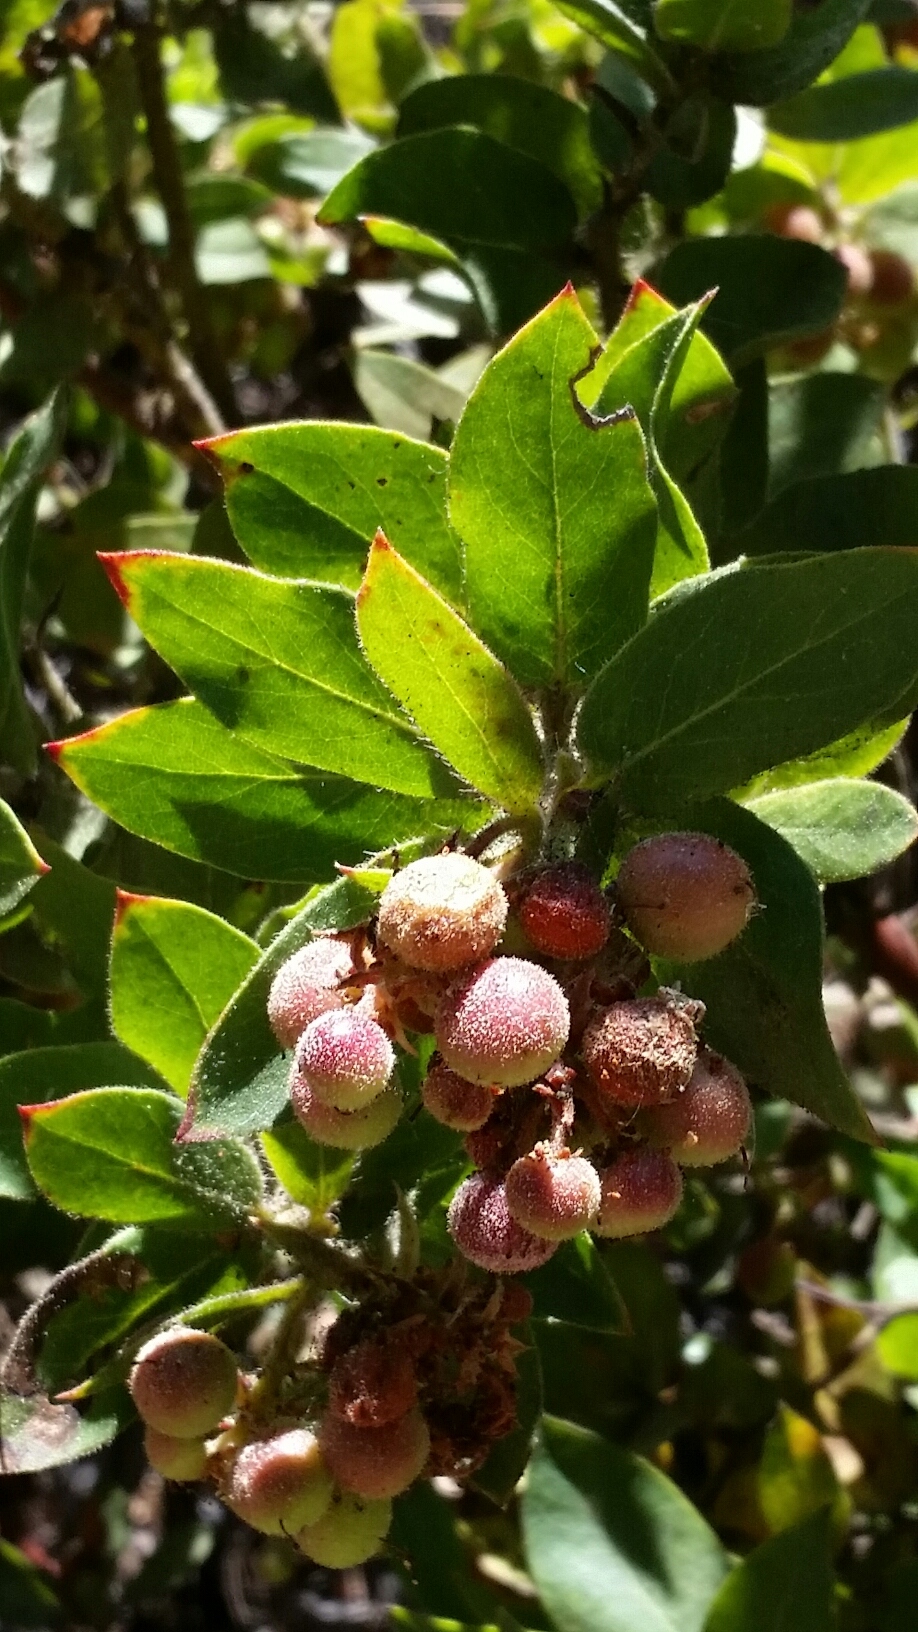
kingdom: Plantae
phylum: Tracheophyta
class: Magnoliopsida
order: Ericales
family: Ericaceae
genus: Arctostaphylos
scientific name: Arctostaphylos virgata
